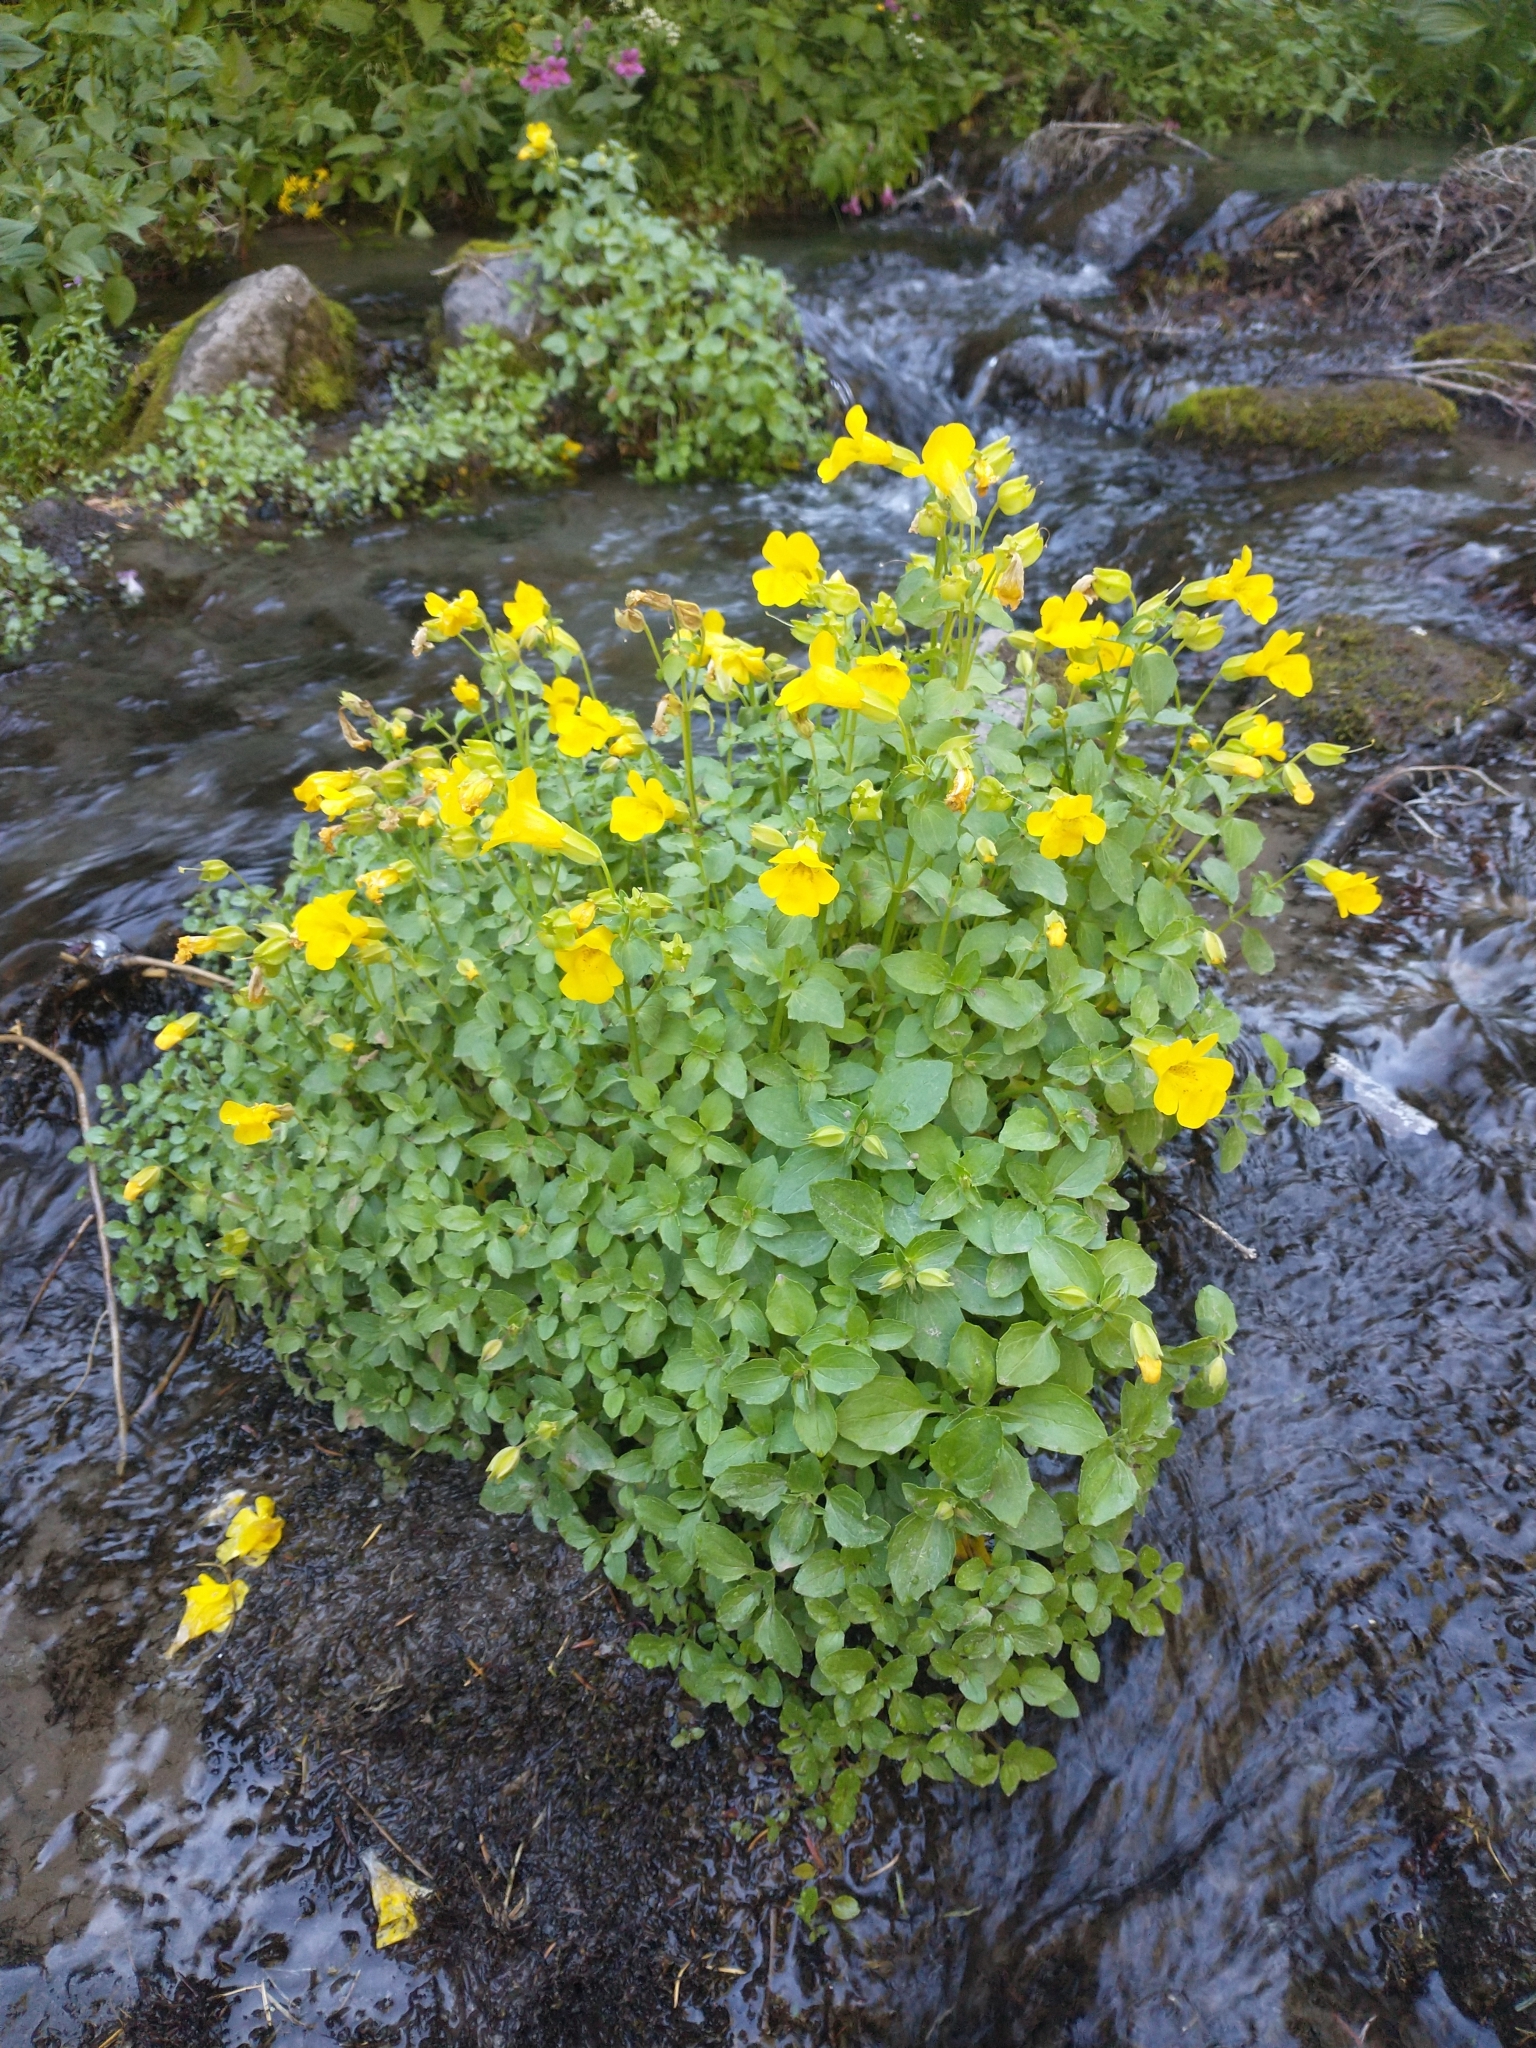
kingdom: Plantae
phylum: Tracheophyta
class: Magnoliopsida
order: Lamiales
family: Phrymaceae
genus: Erythranthe
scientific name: Erythranthe decora
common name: Mannered monkeyflower
